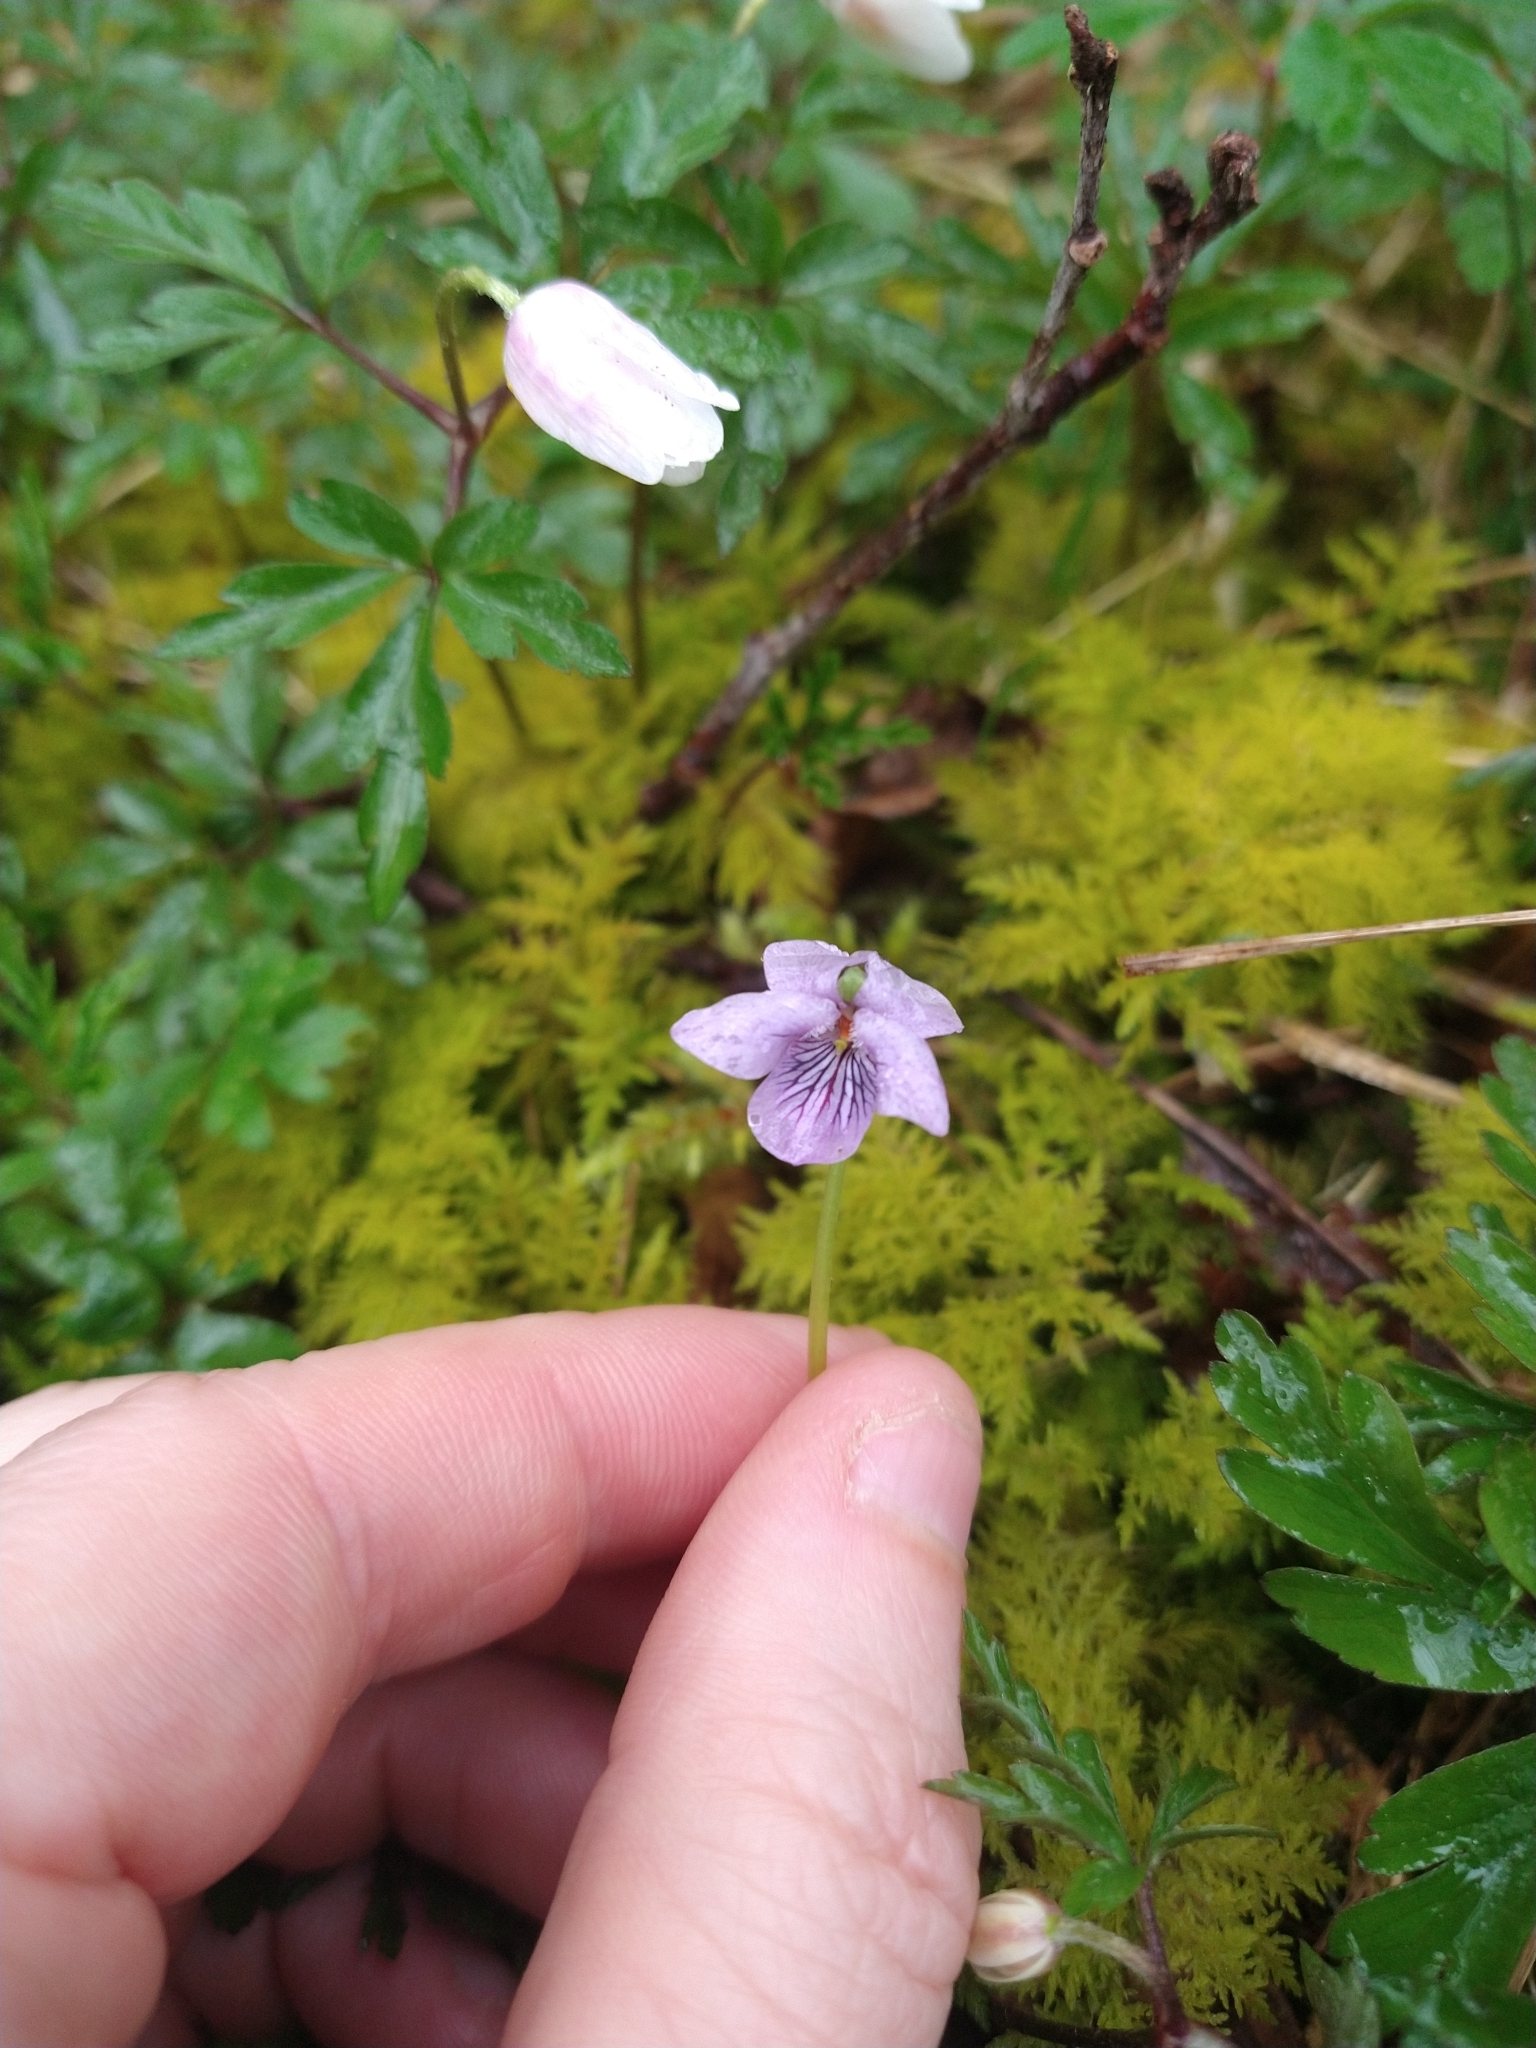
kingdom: Plantae
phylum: Tracheophyta
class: Magnoliopsida
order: Malpighiales
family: Violaceae
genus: Viola
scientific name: Viola palustris
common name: Marsh violet
